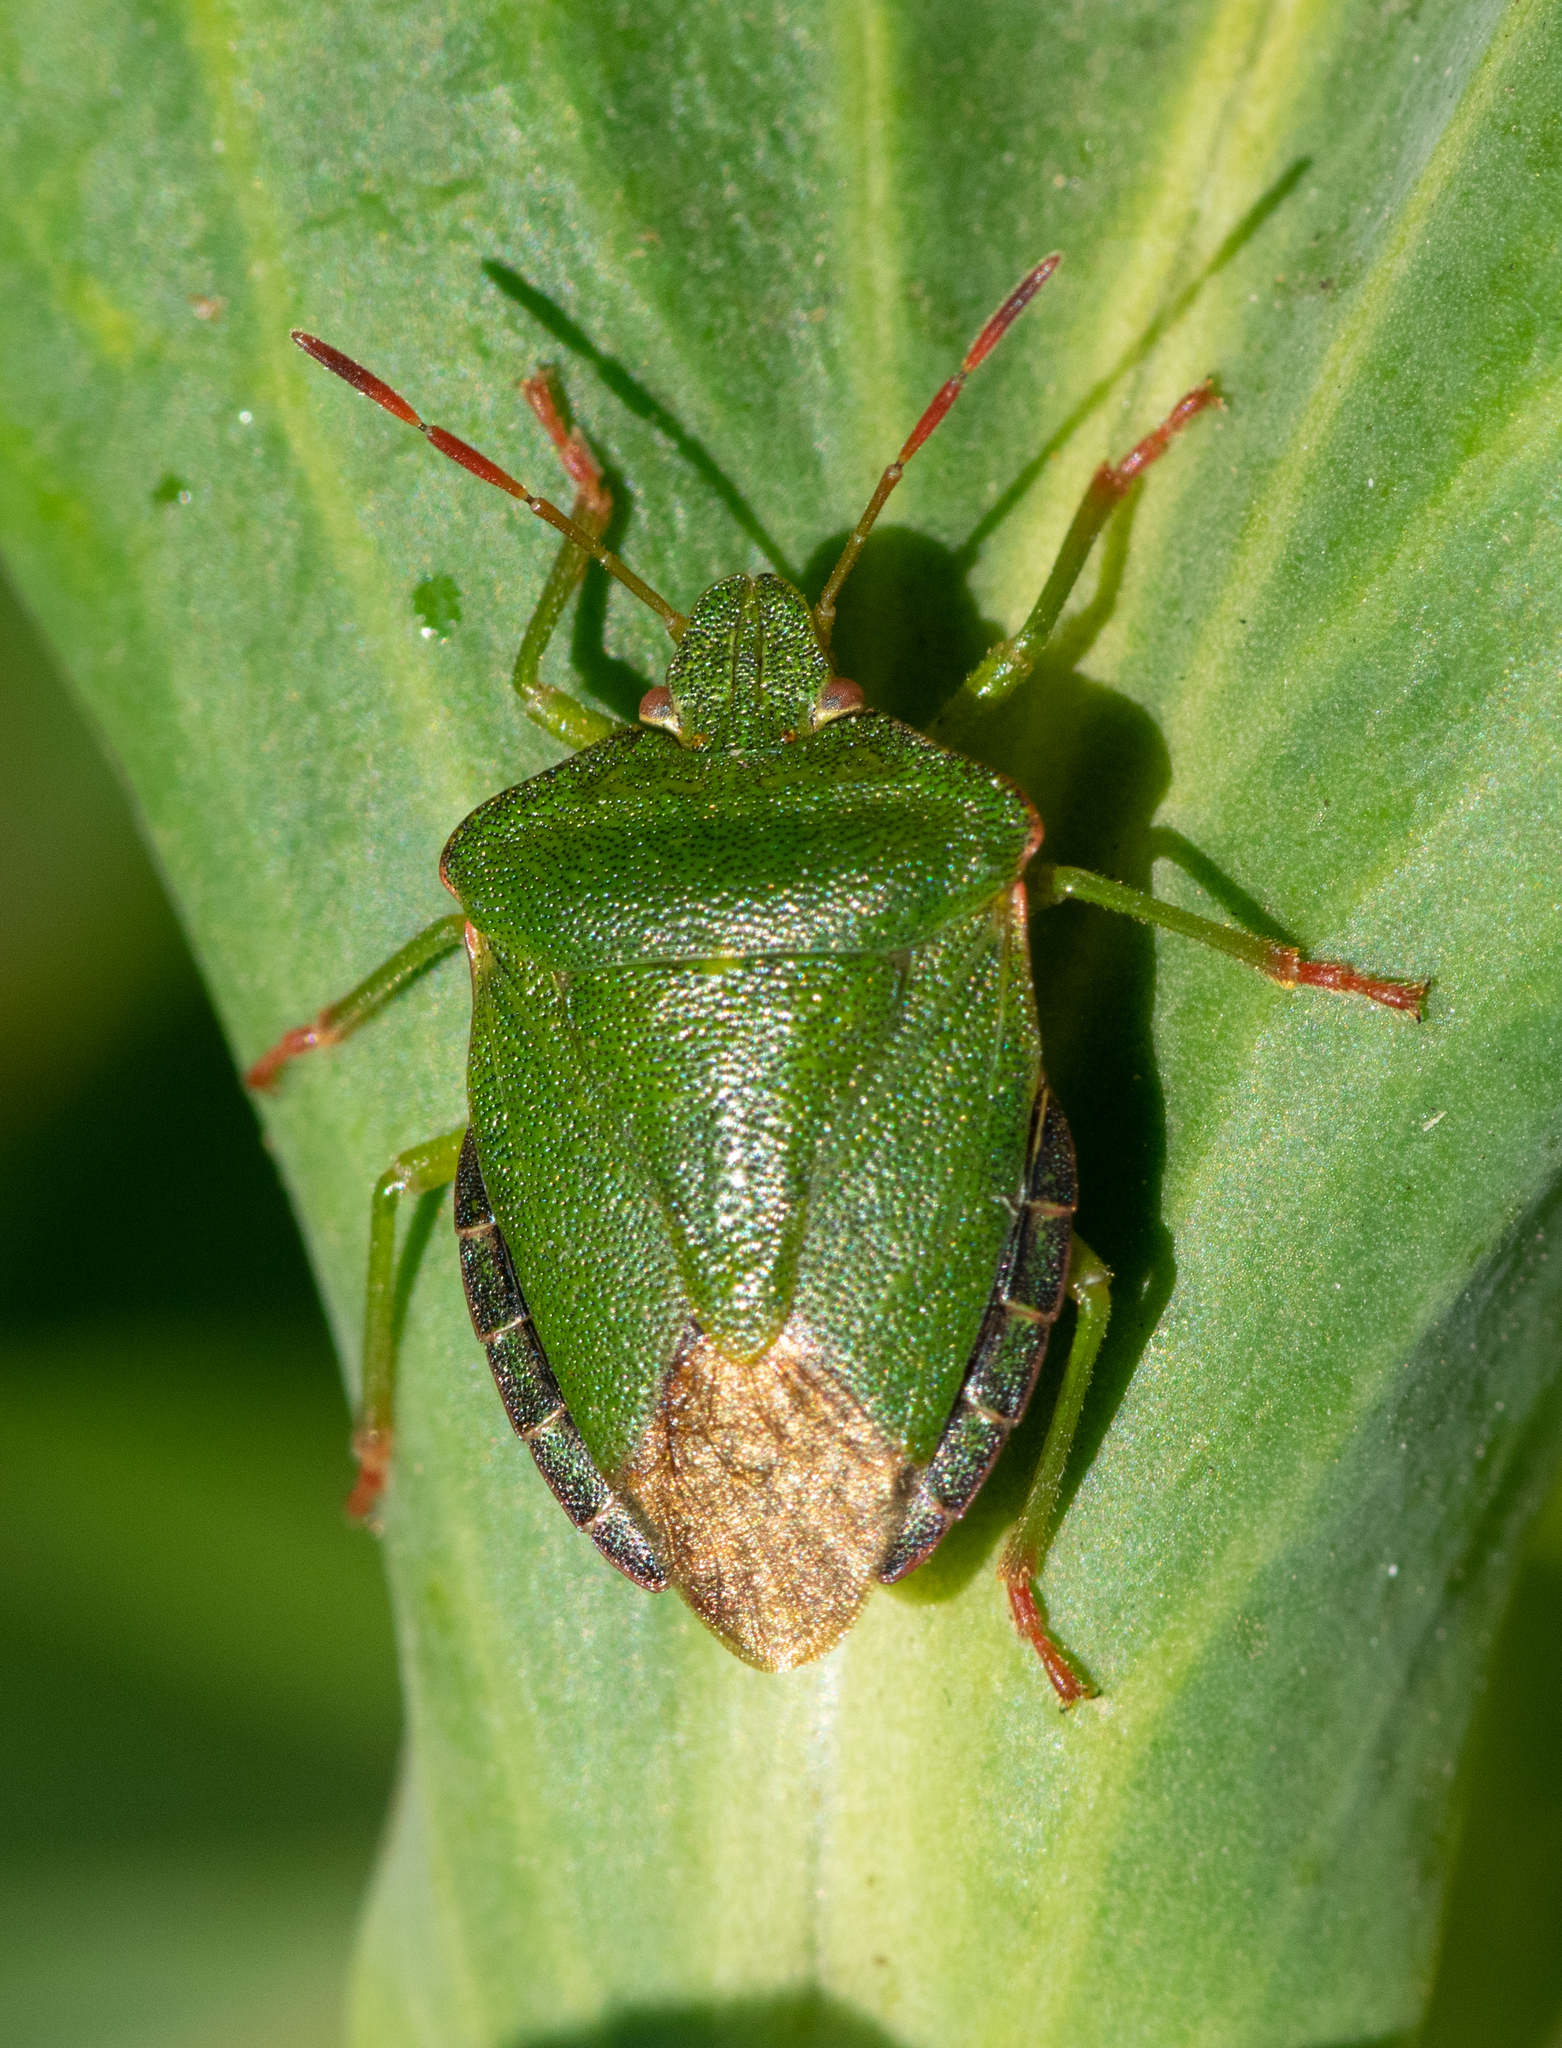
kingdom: Animalia
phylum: Arthropoda
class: Insecta
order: Hemiptera
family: Pentatomidae
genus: Palomena
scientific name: Palomena prasina
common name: Green shieldbug
